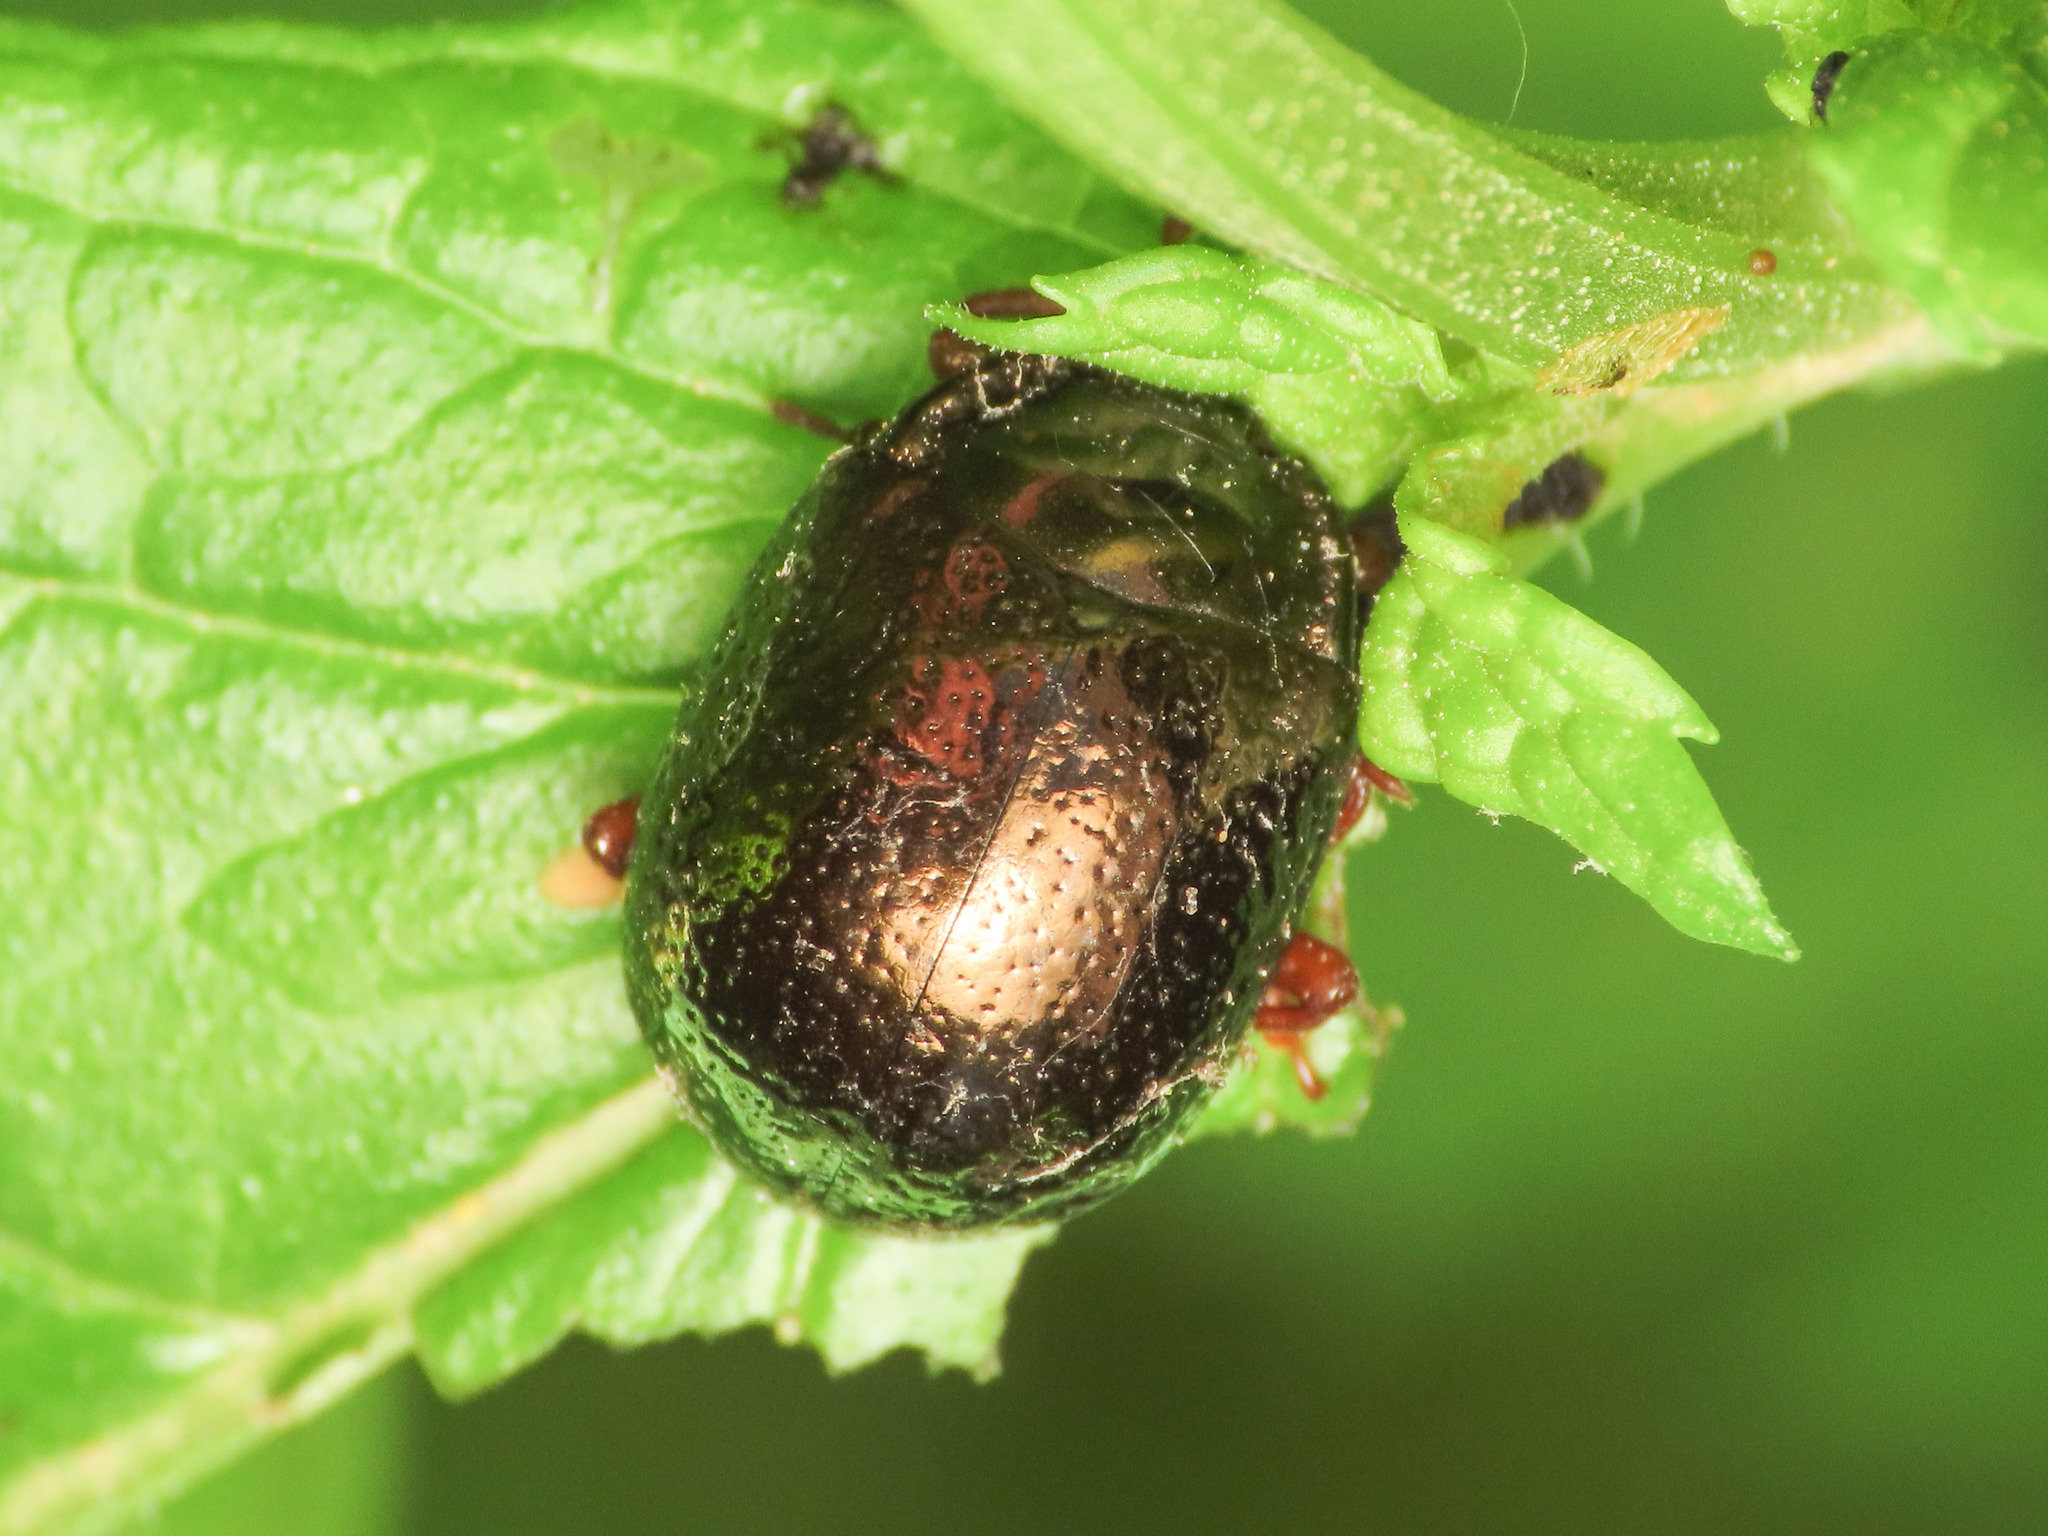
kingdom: Animalia
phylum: Arthropoda
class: Insecta
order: Coleoptera
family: Chrysomelidae
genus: Chrysolina
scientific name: Chrysolina bankii
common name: Leaf beetle
